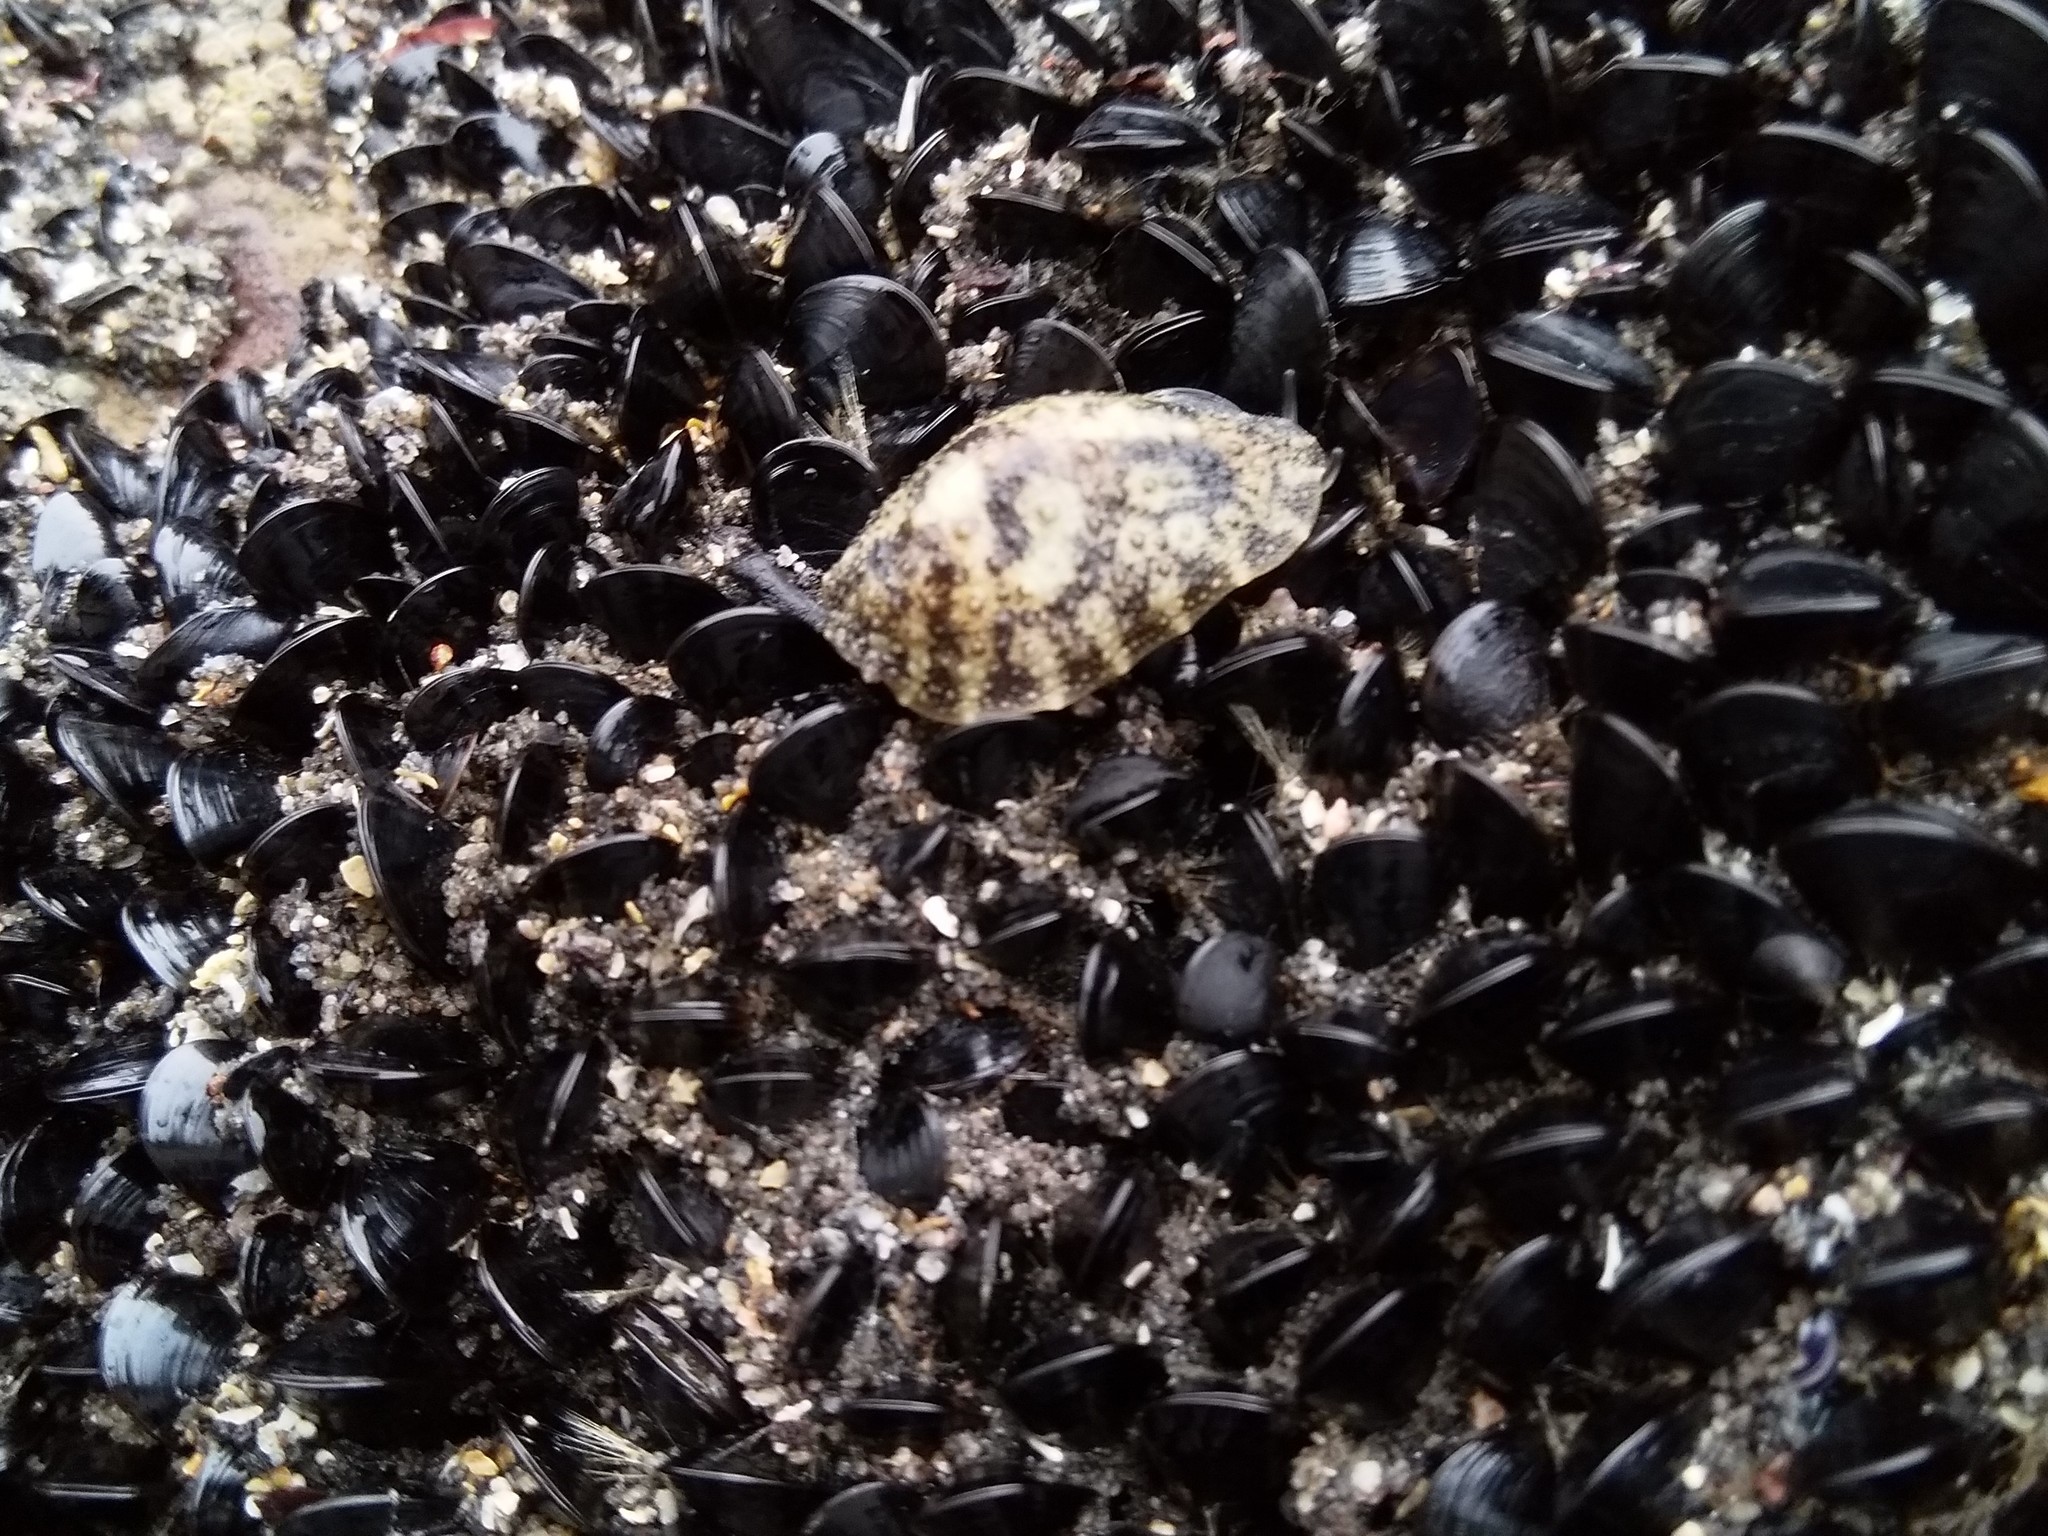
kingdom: Animalia
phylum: Mollusca
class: Gastropoda
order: Systellommatophora
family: Onchidiidae
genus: Onchidella
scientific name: Onchidella nigricans
